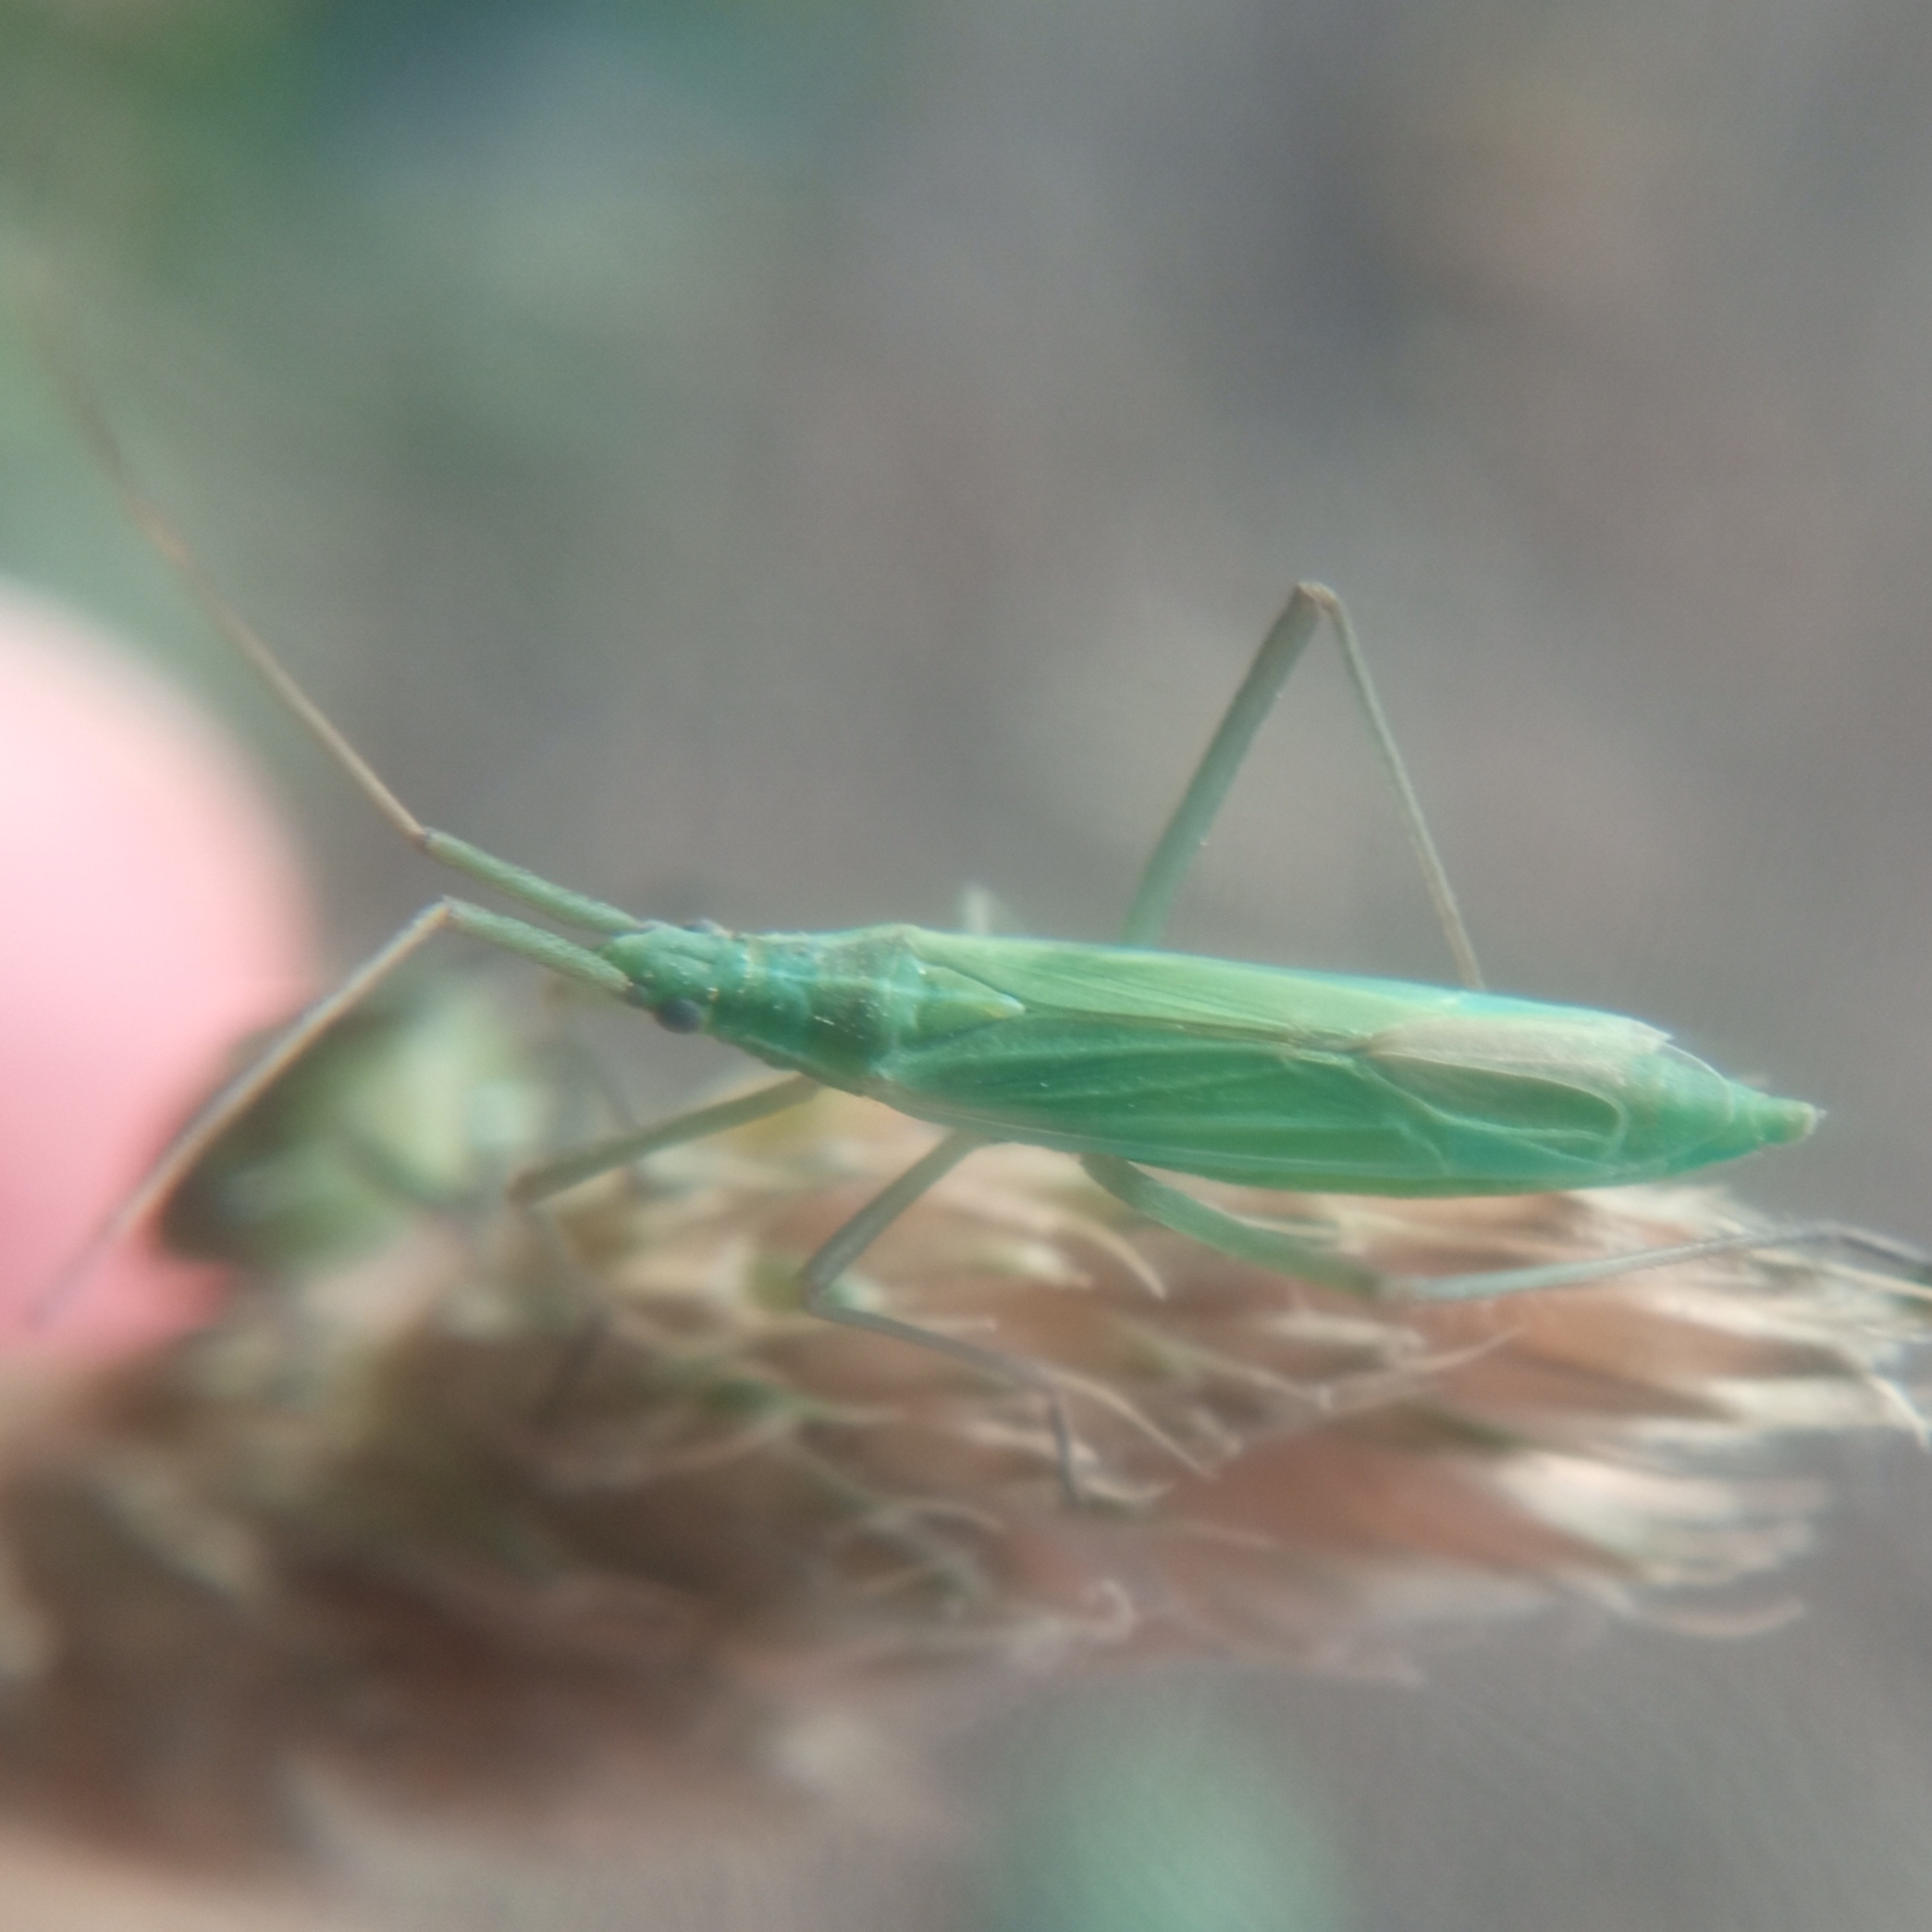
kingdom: Animalia
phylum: Arthropoda
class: Insecta
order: Hemiptera
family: Miridae
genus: Megaloceroea
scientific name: Megaloceroea recticornis
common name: Plant bug
